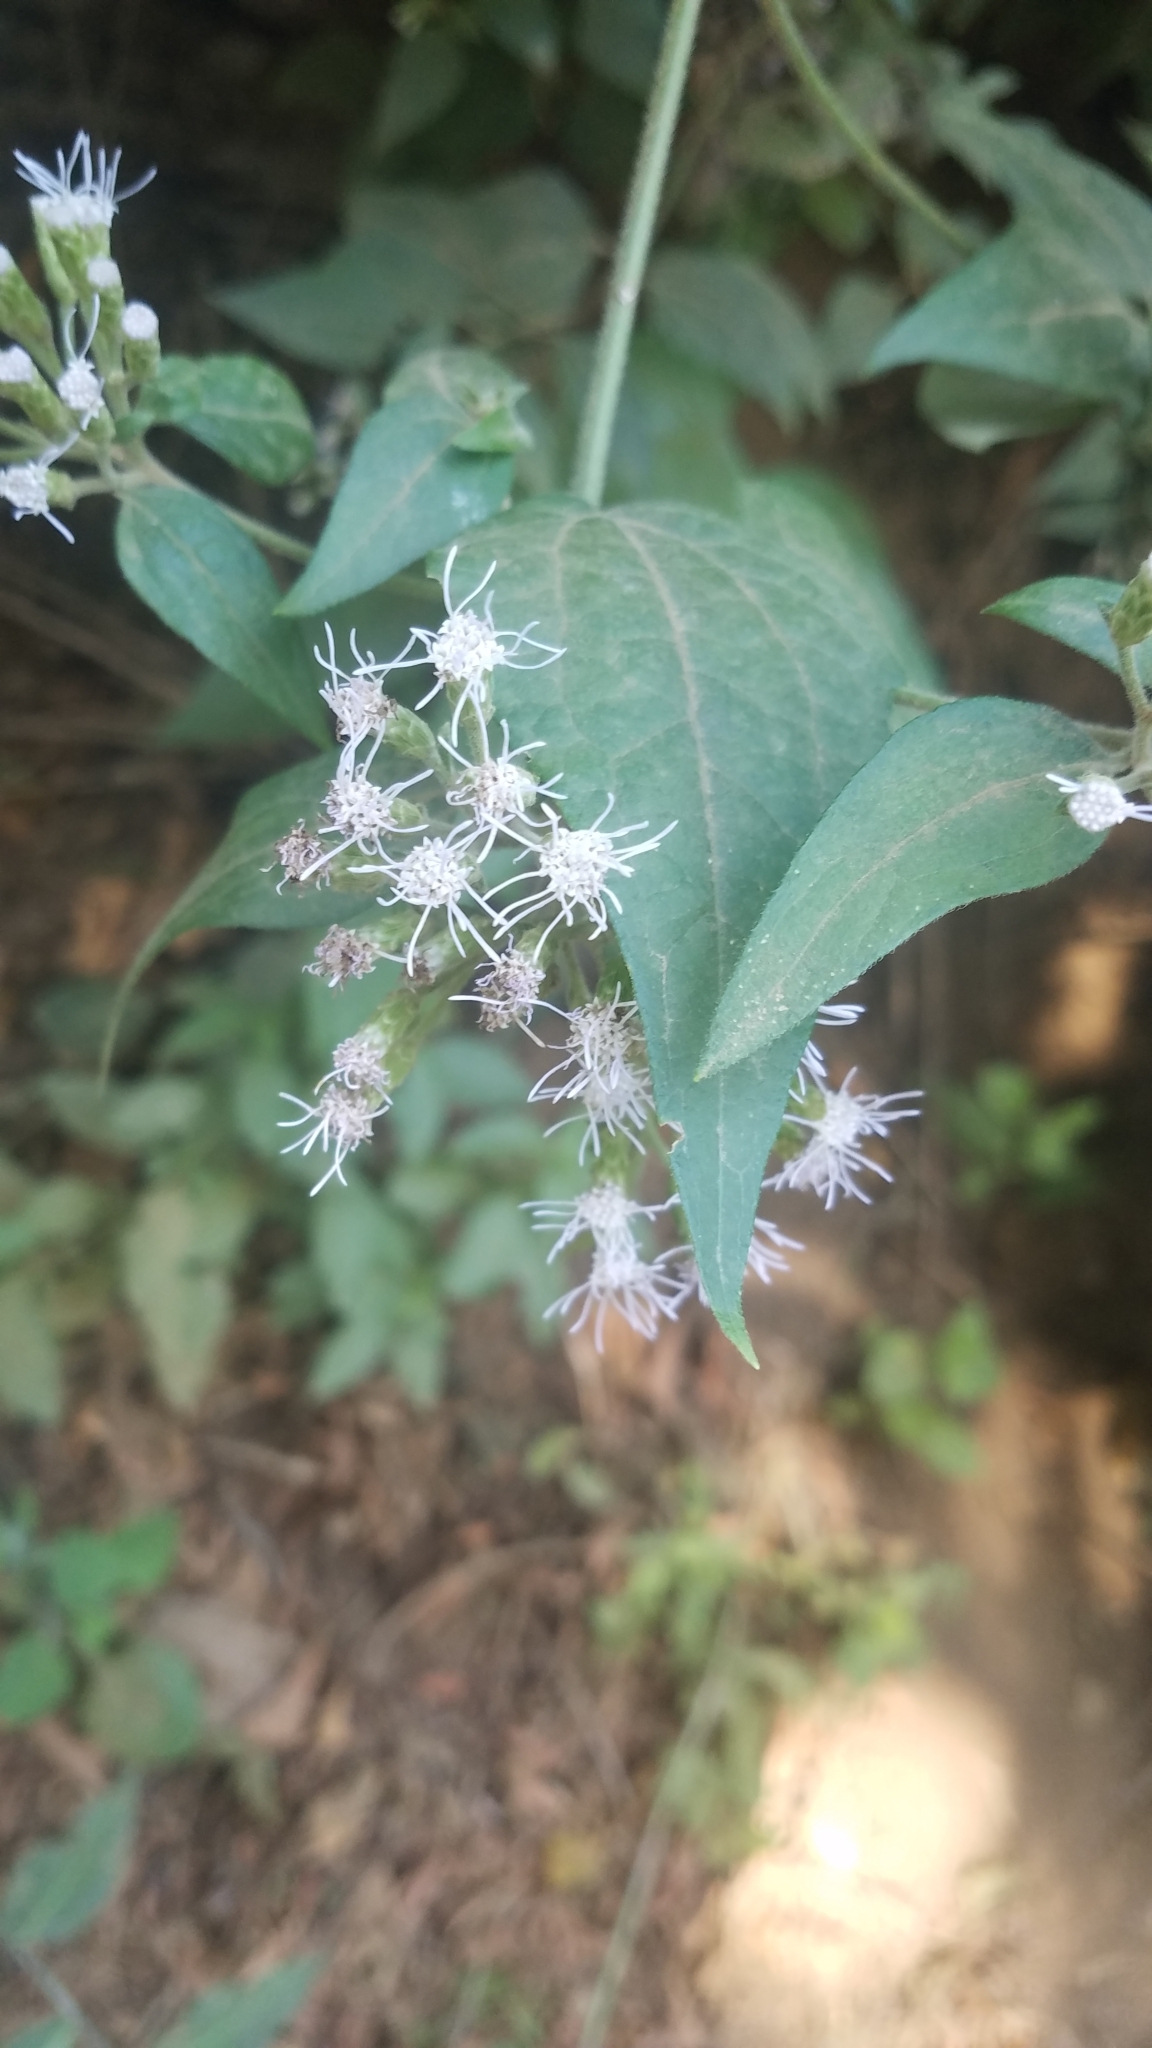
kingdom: Plantae
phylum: Tracheophyta
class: Magnoliopsida
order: Asterales
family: Asteraceae
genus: Chromolaena
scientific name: Chromolaena odorata
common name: Siamweed
